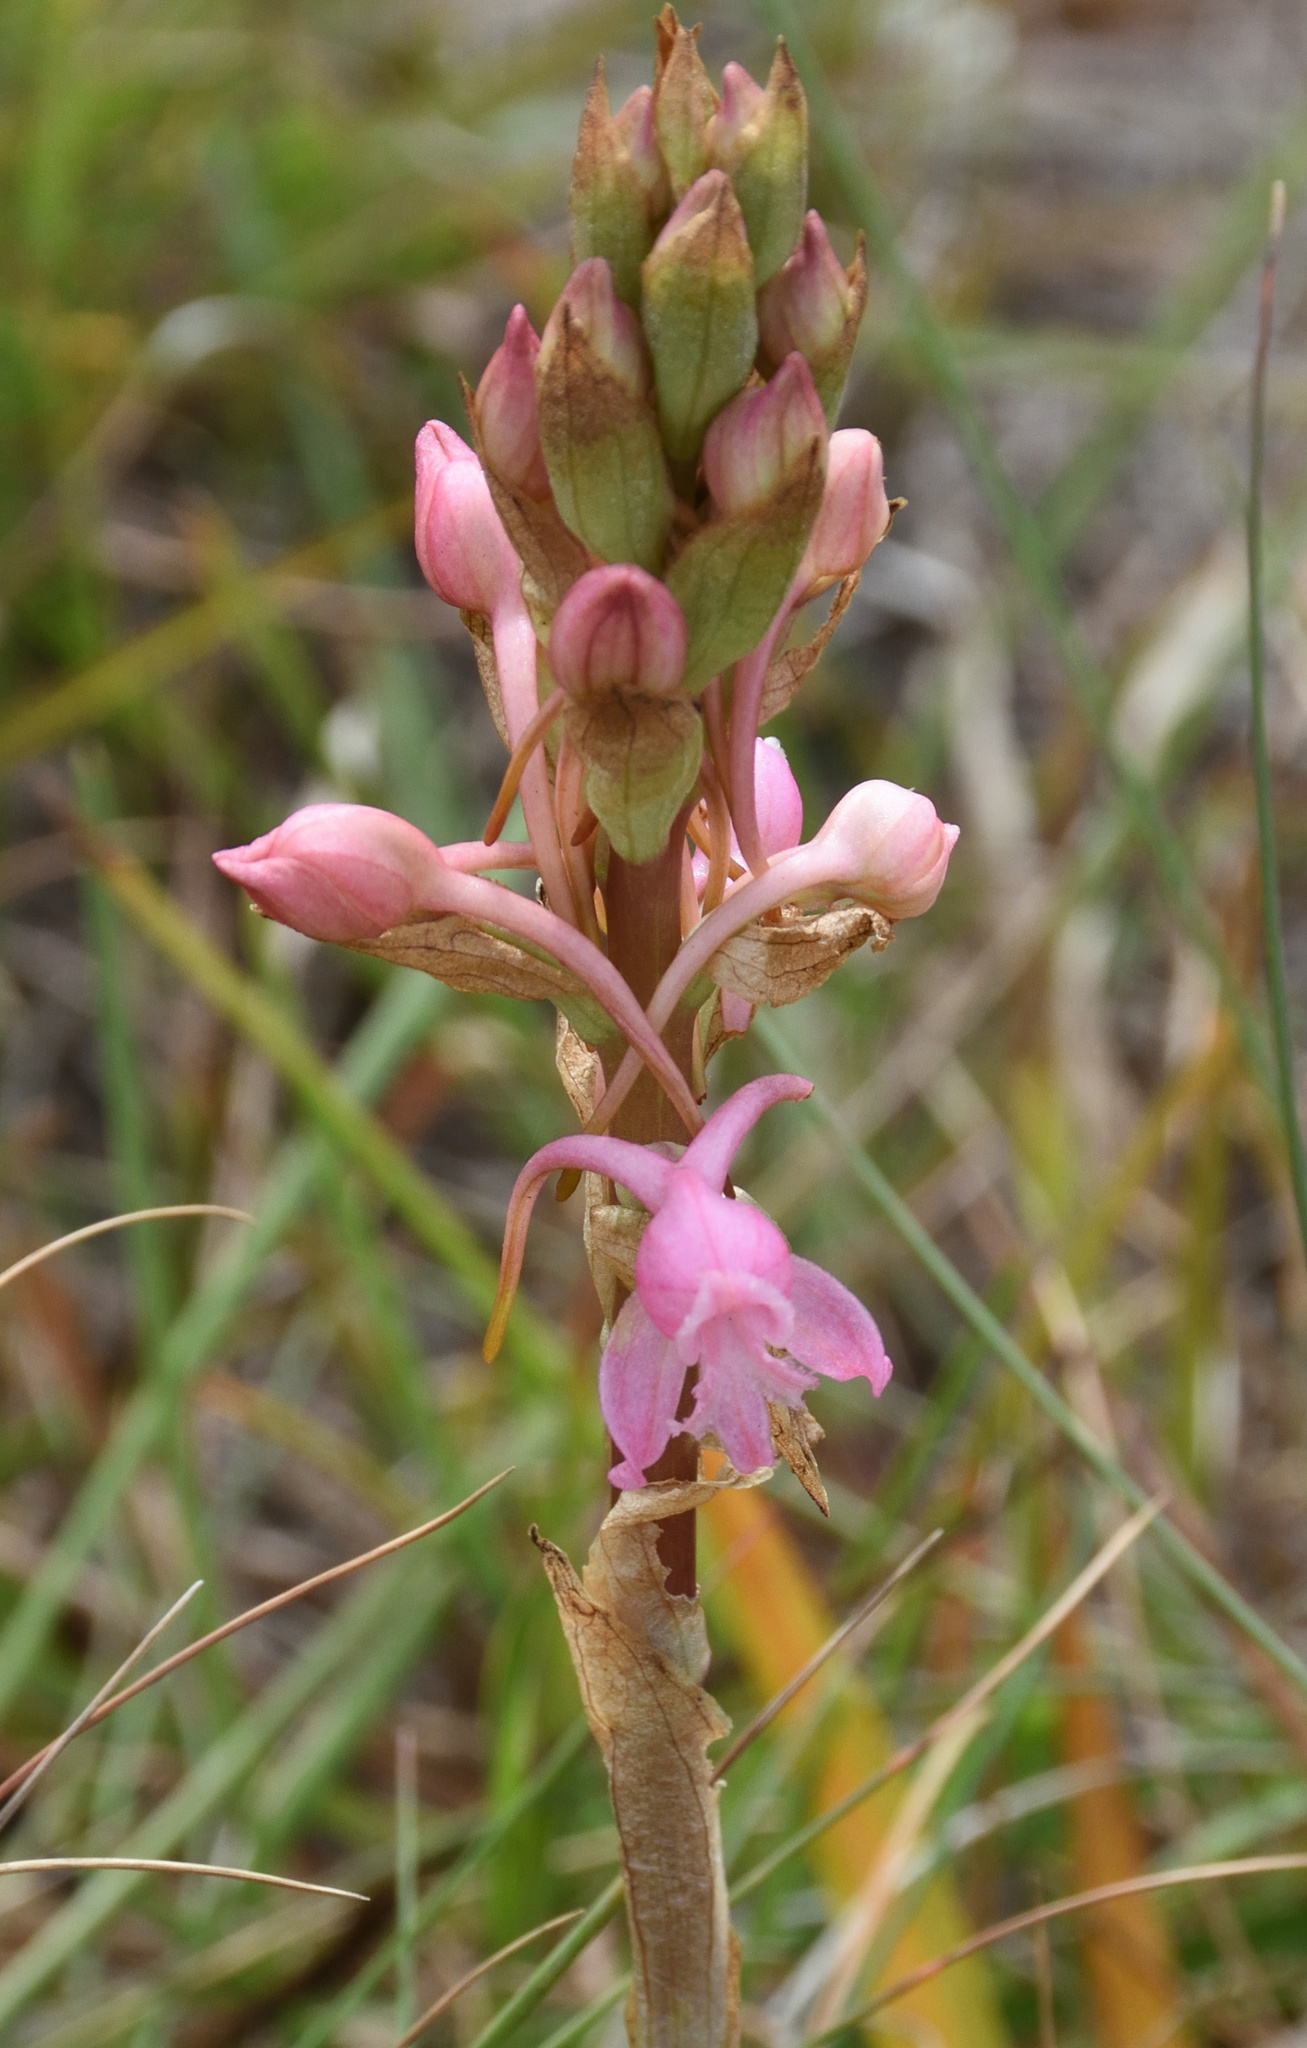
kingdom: Plantae
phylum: Tracheophyta
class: Liliopsida
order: Asparagales
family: Orchidaceae
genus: Satyrium
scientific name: Satyrium membranaceum
